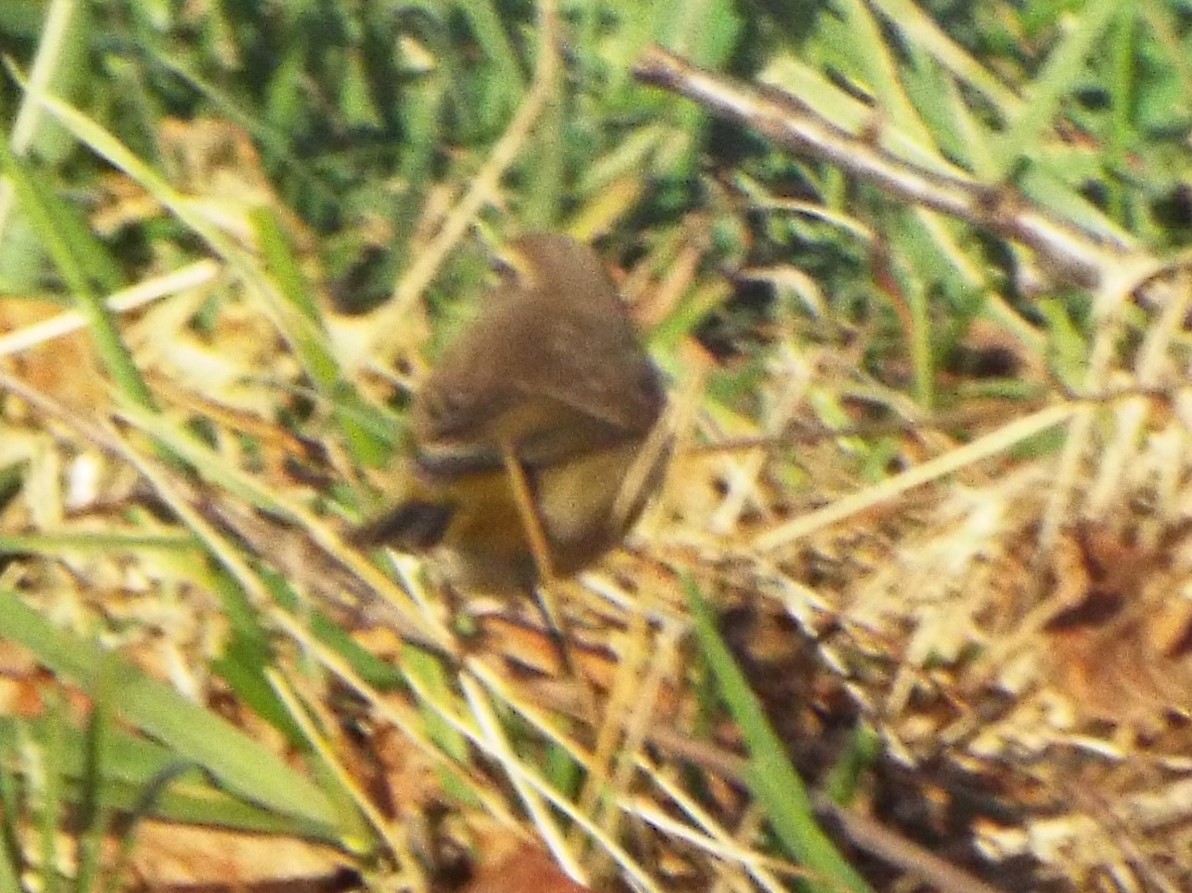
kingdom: Animalia
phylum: Chordata
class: Aves
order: Passeriformes
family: Parulidae
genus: Setophaga
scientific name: Setophaga palmarum
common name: Palm warbler
